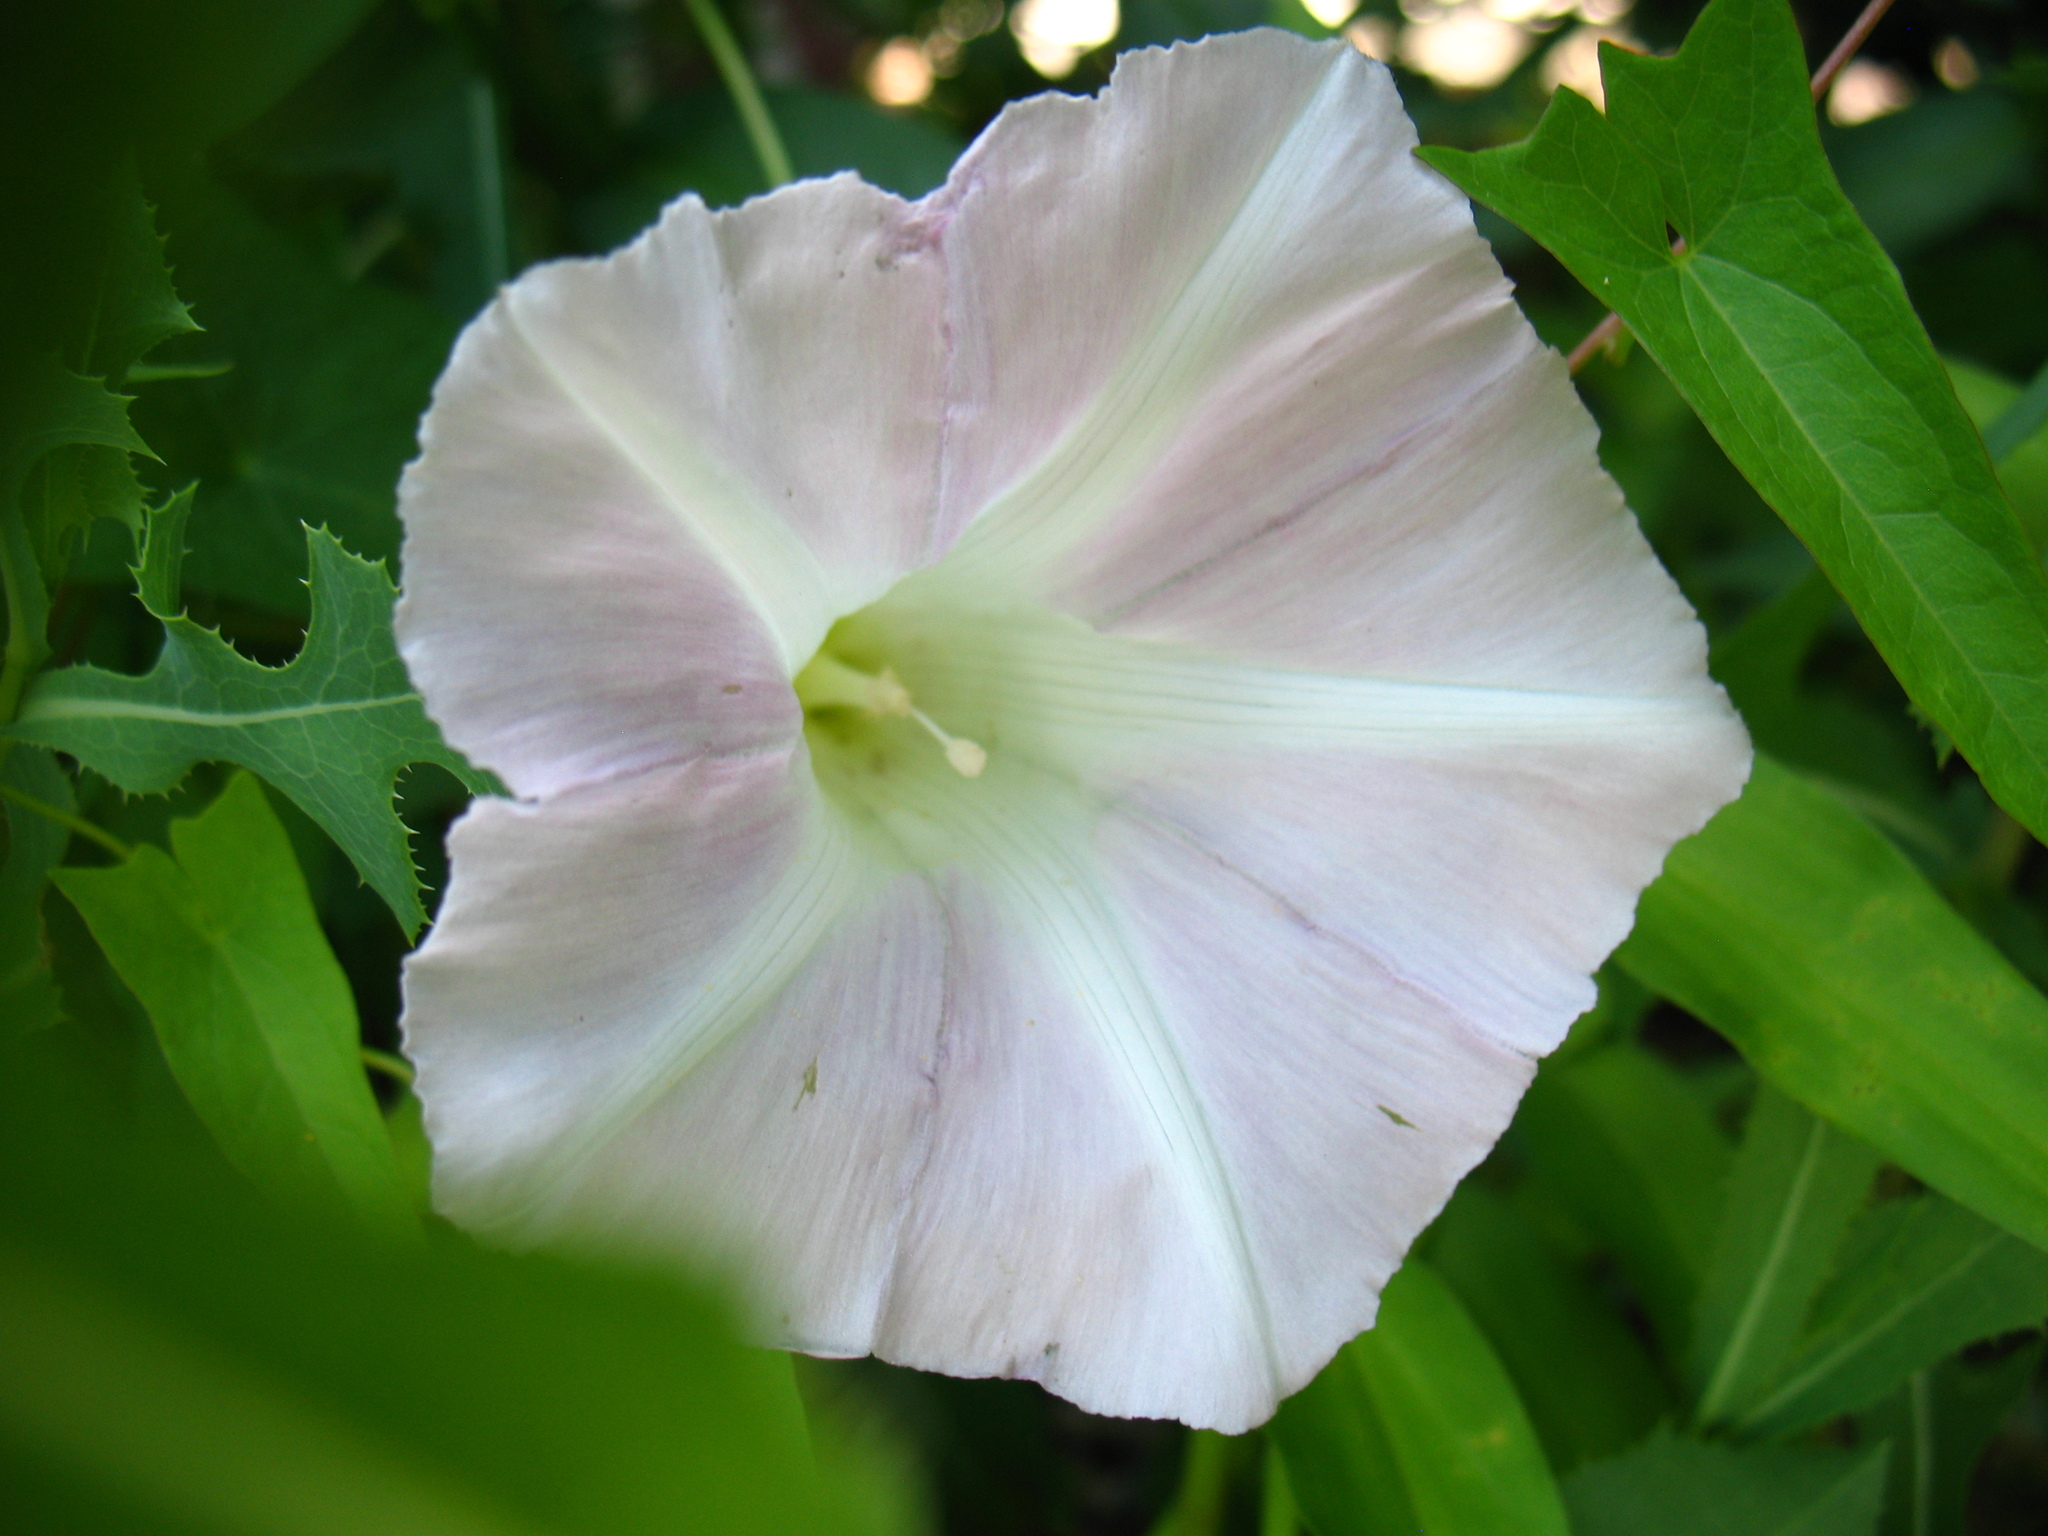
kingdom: Plantae
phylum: Tracheophyta
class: Magnoliopsida
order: Solanales
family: Convolvulaceae
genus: Calystegia
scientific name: Calystegia sepium
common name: Hedge bindweed
